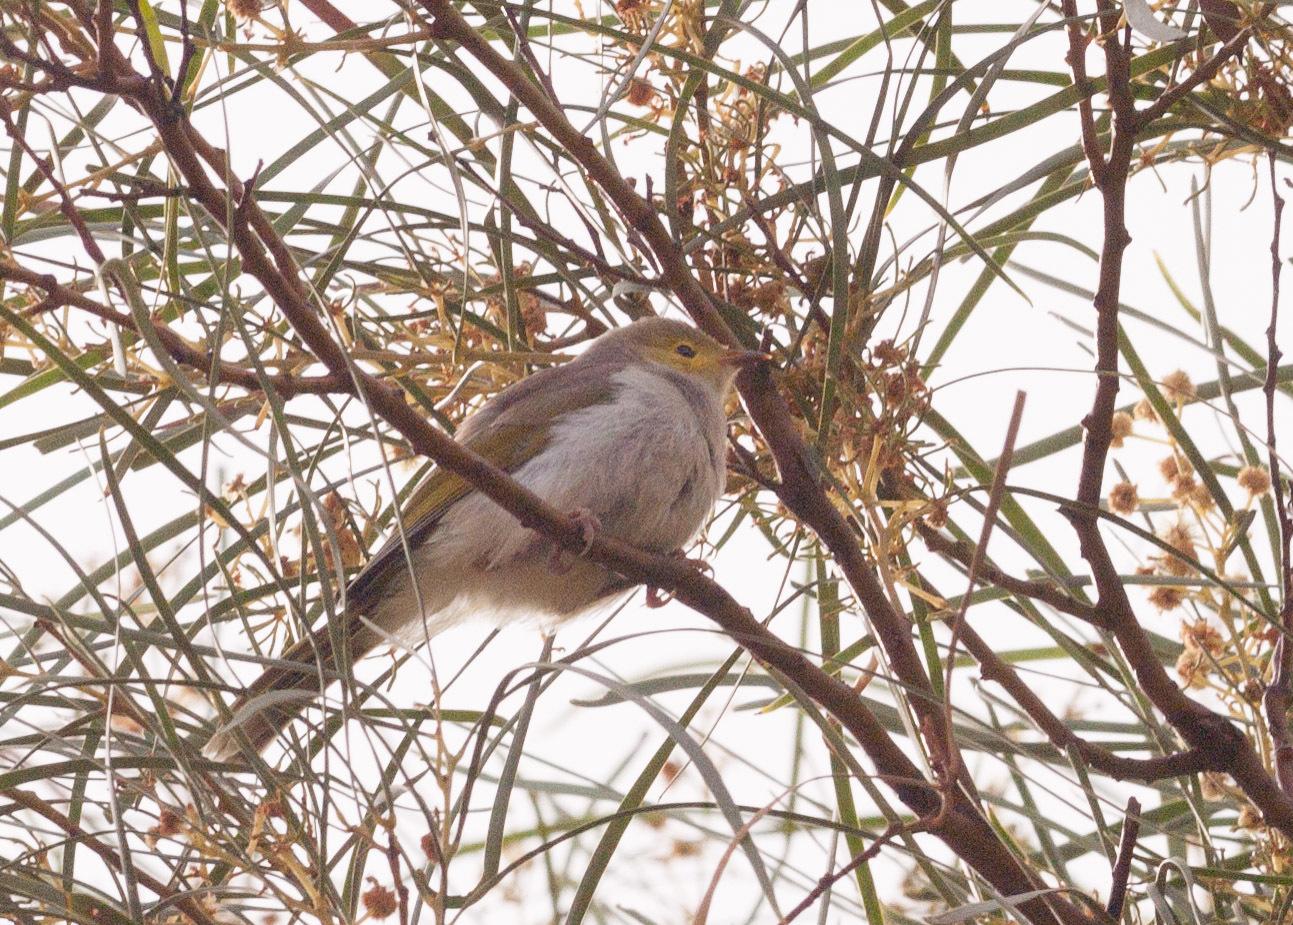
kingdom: Animalia
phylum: Chordata
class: Aves
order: Passeriformes
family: Meliphagidae
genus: Ptilotula
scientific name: Ptilotula penicillata
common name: White-plumed honeyeater
